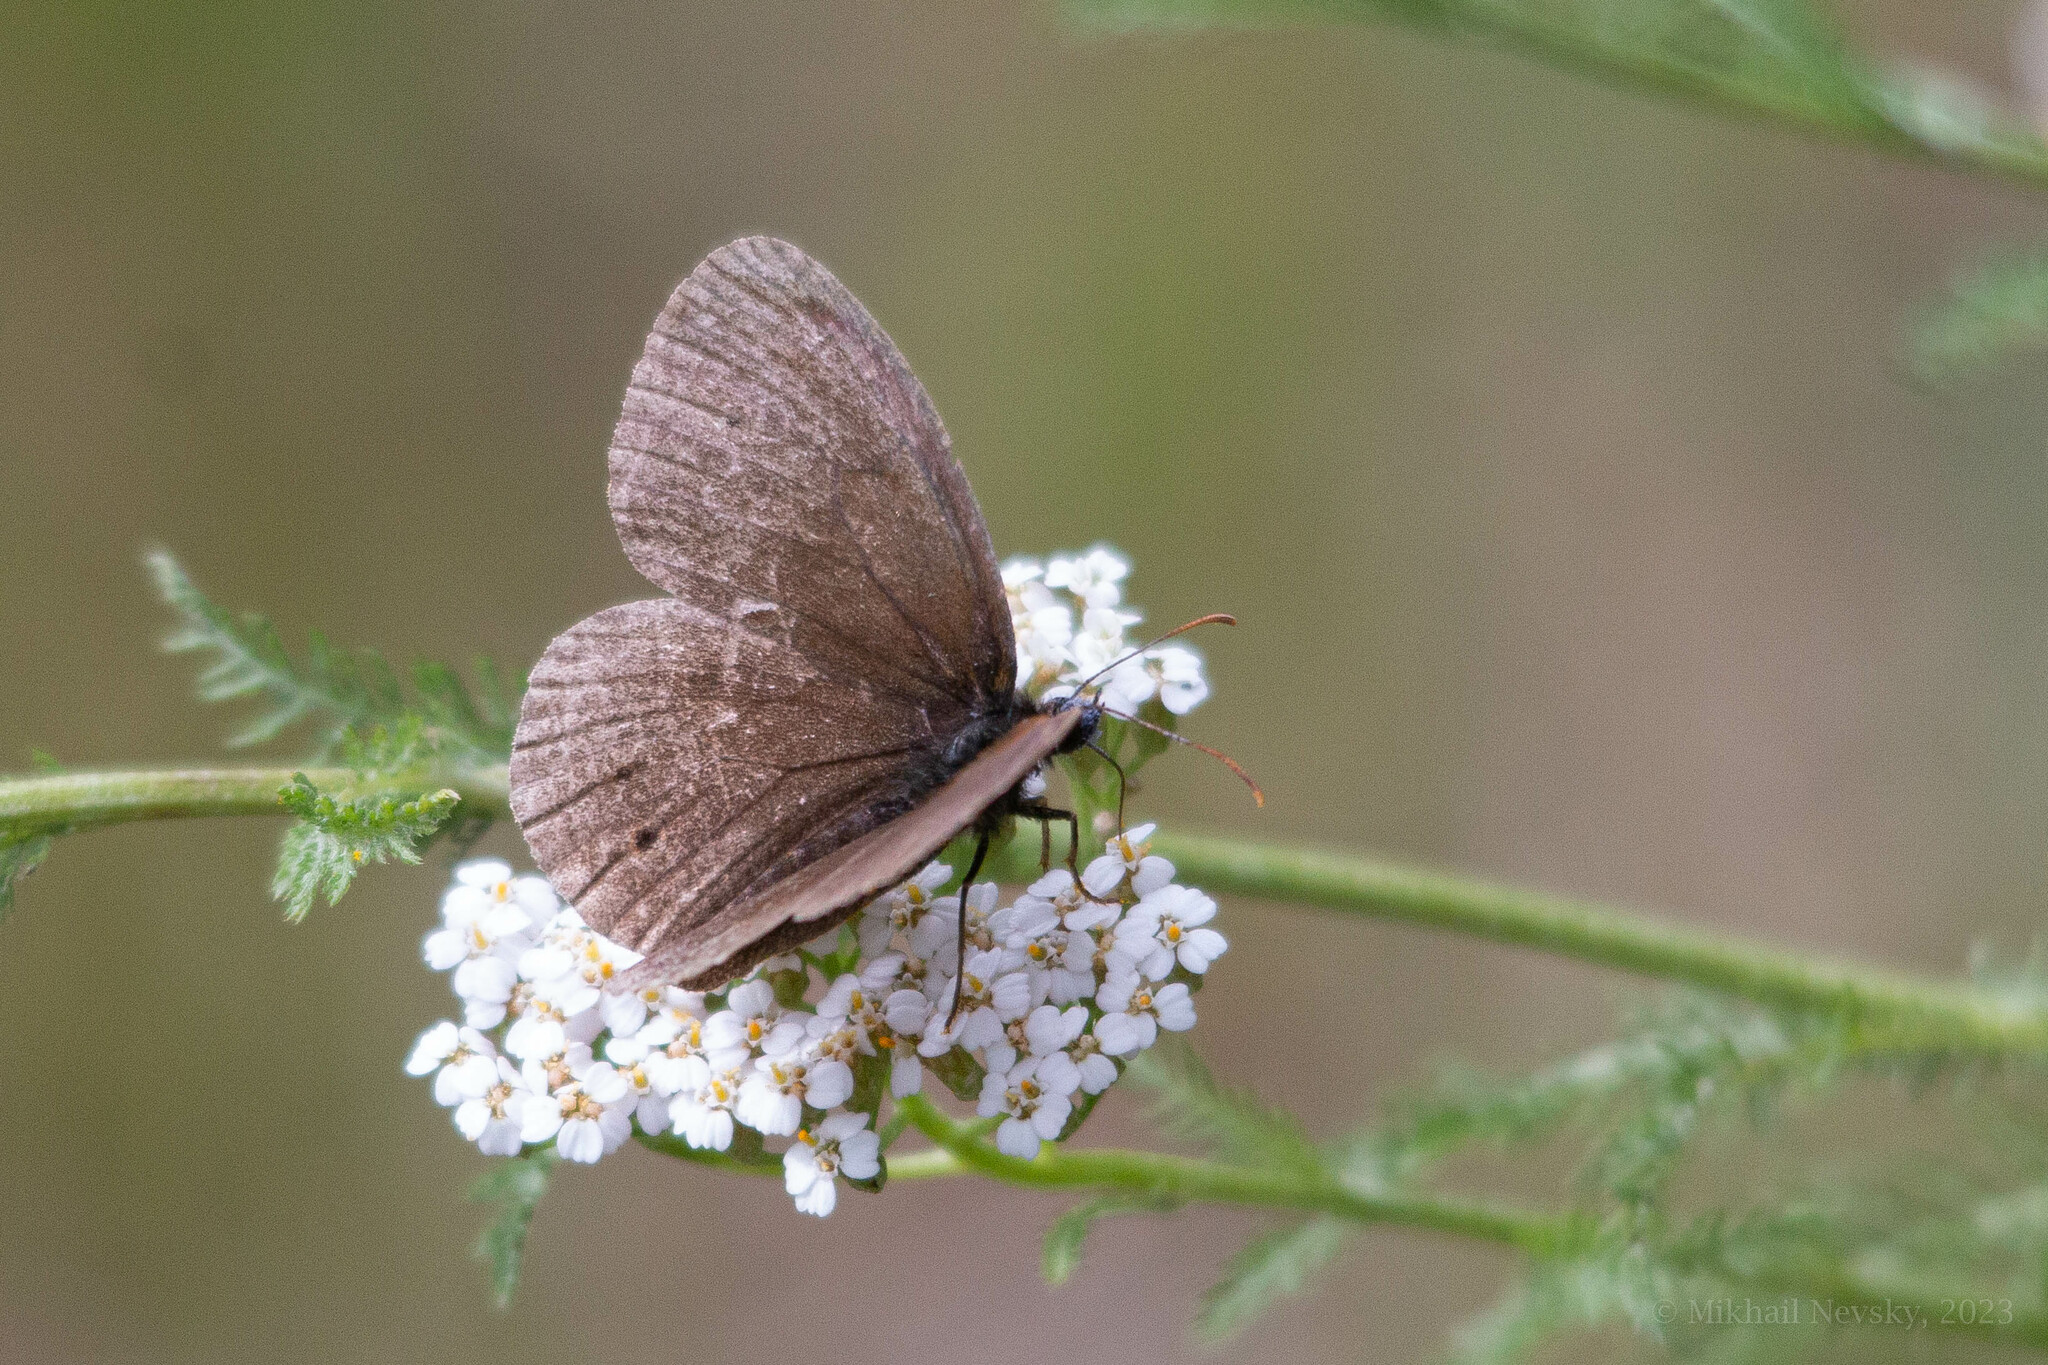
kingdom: Animalia
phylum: Arthropoda
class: Insecta
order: Lepidoptera
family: Nymphalidae
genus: Aphantopus
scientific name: Aphantopus hyperantus
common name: Ringlet
